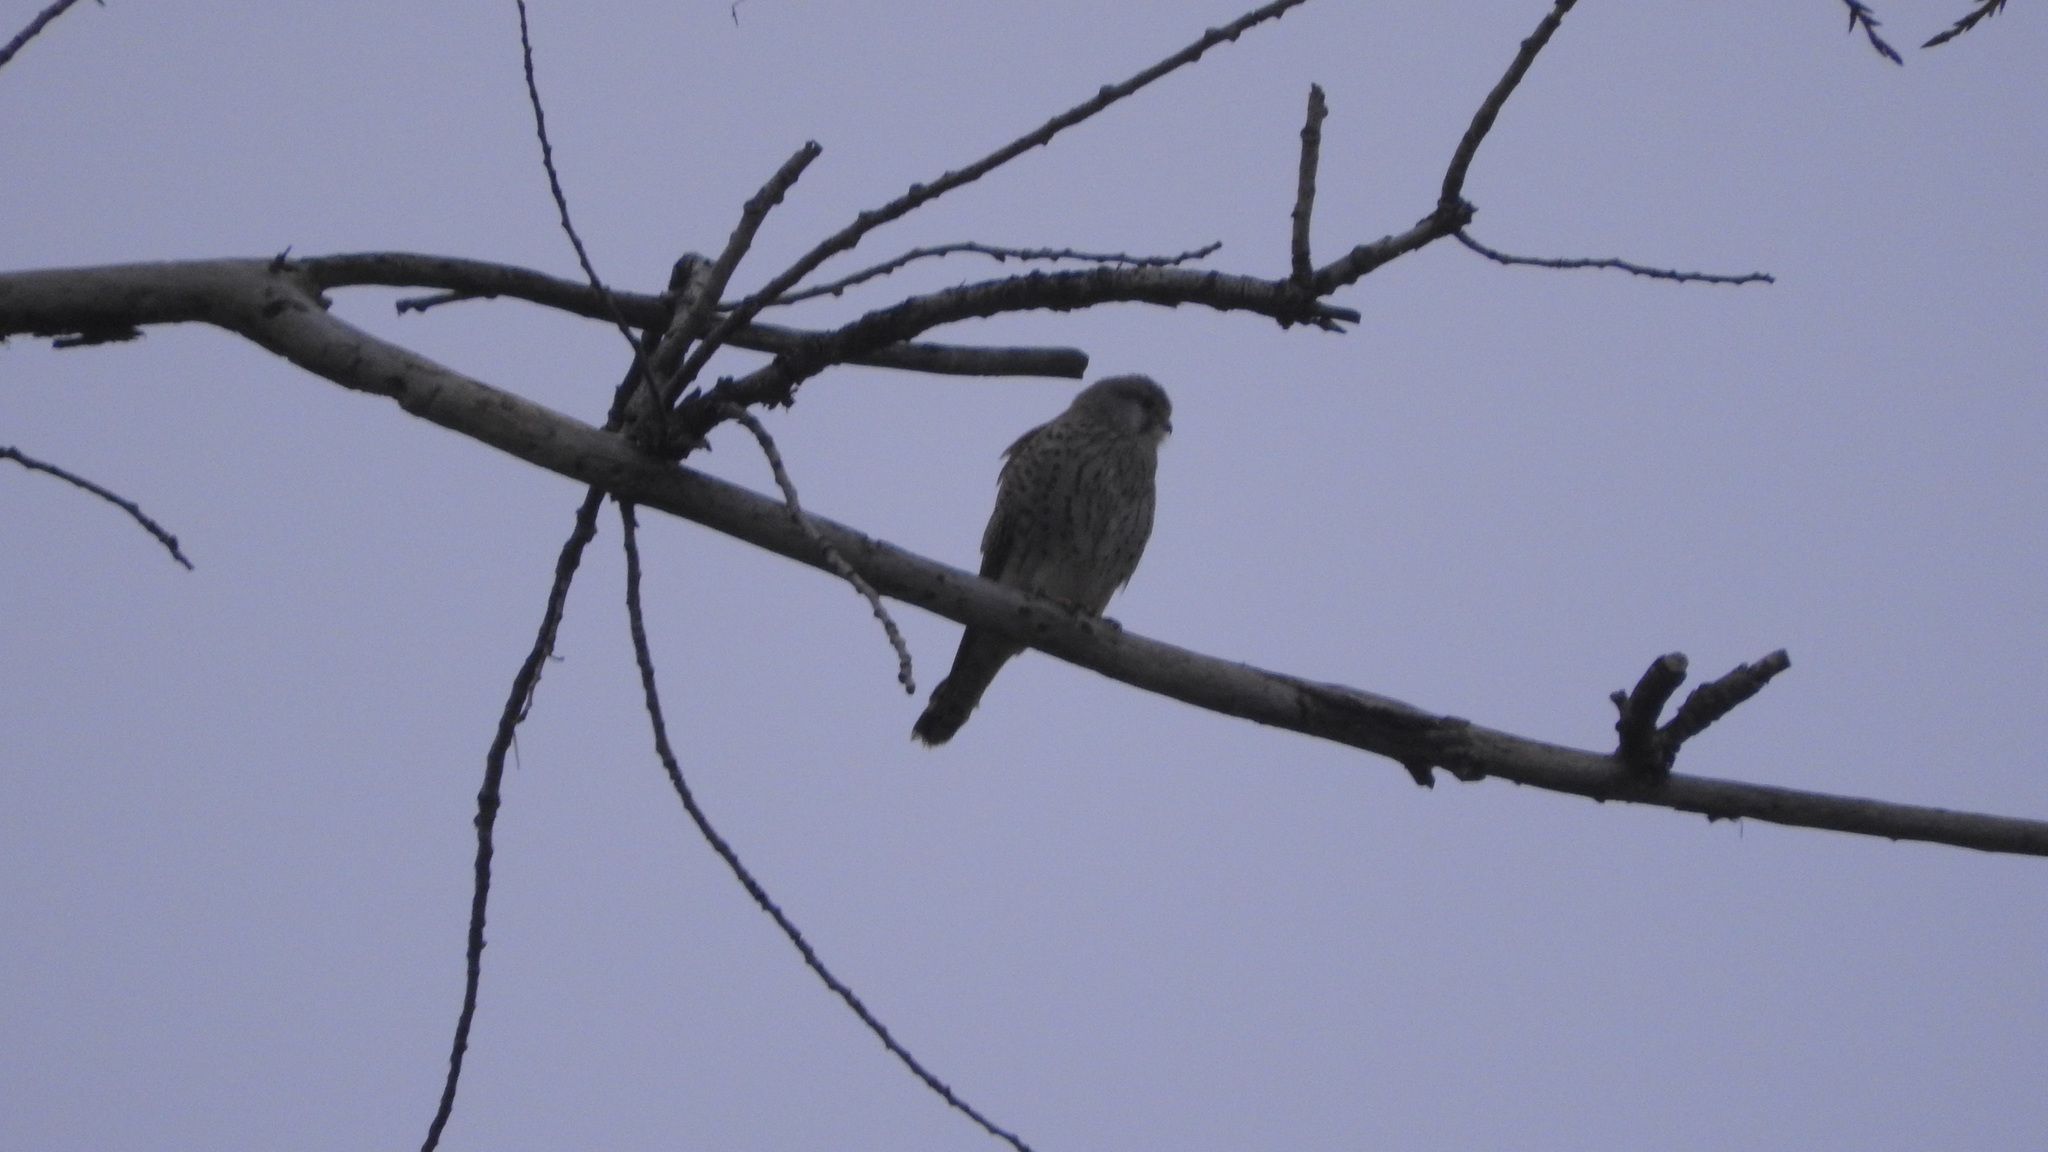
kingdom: Animalia
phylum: Chordata
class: Aves
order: Falconiformes
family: Falconidae
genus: Falco
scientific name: Falco tinnunculus
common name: Common kestrel
